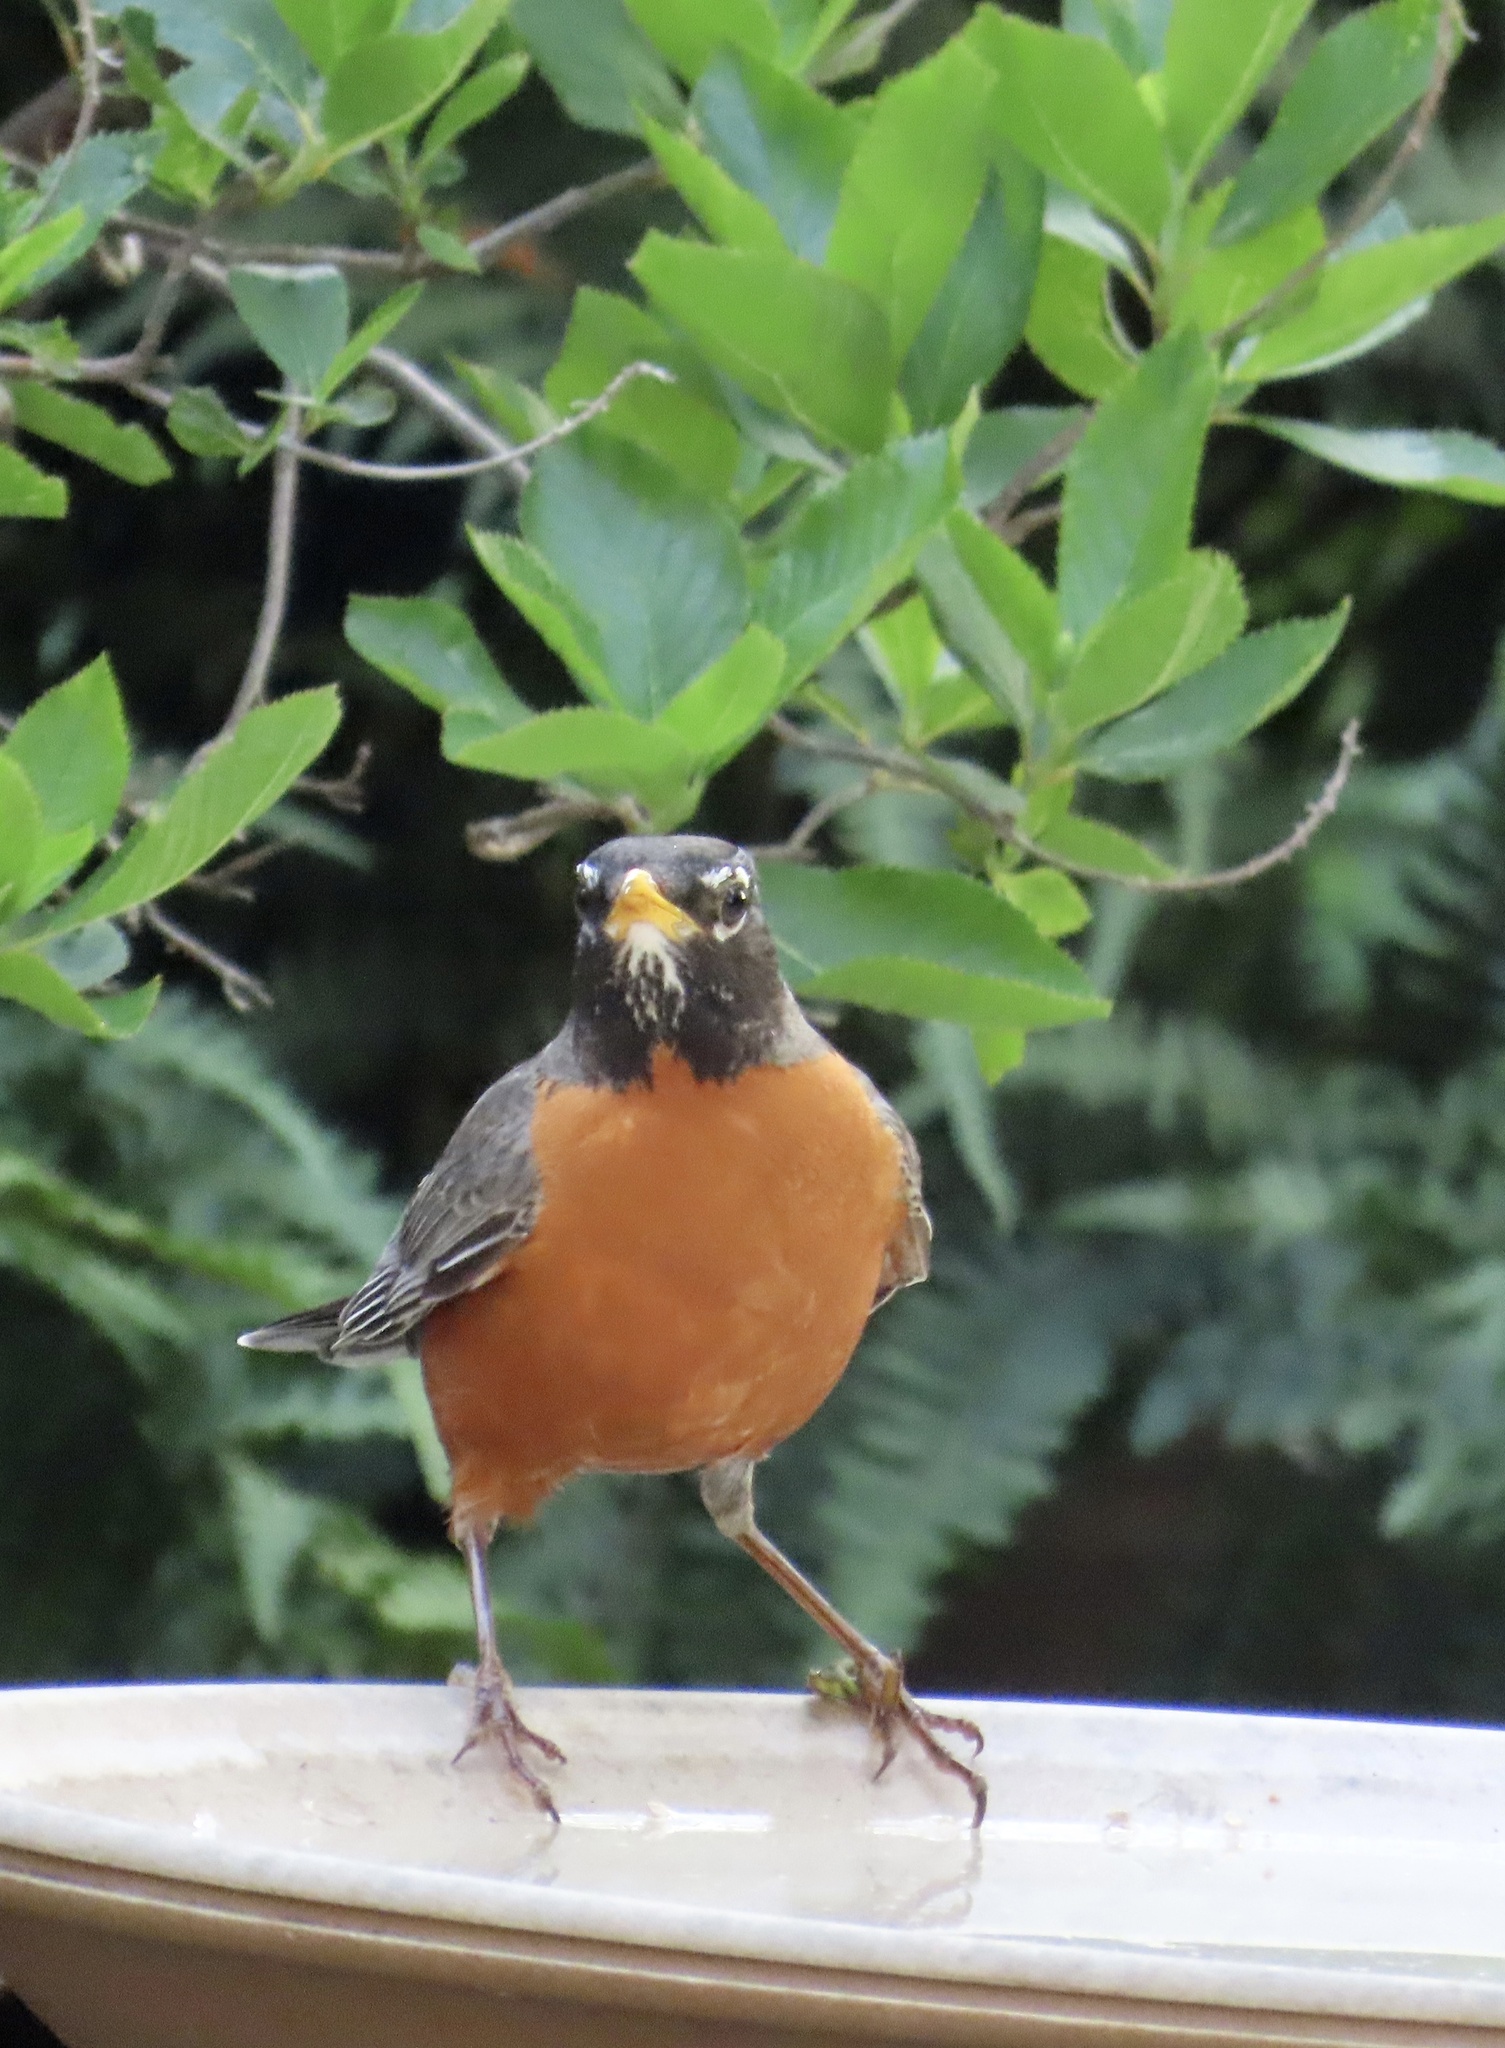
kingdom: Animalia
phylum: Chordata
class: Aves
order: Passeriformes
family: Turdidae
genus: Turdus
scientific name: Turdus migratorius
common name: American robin
